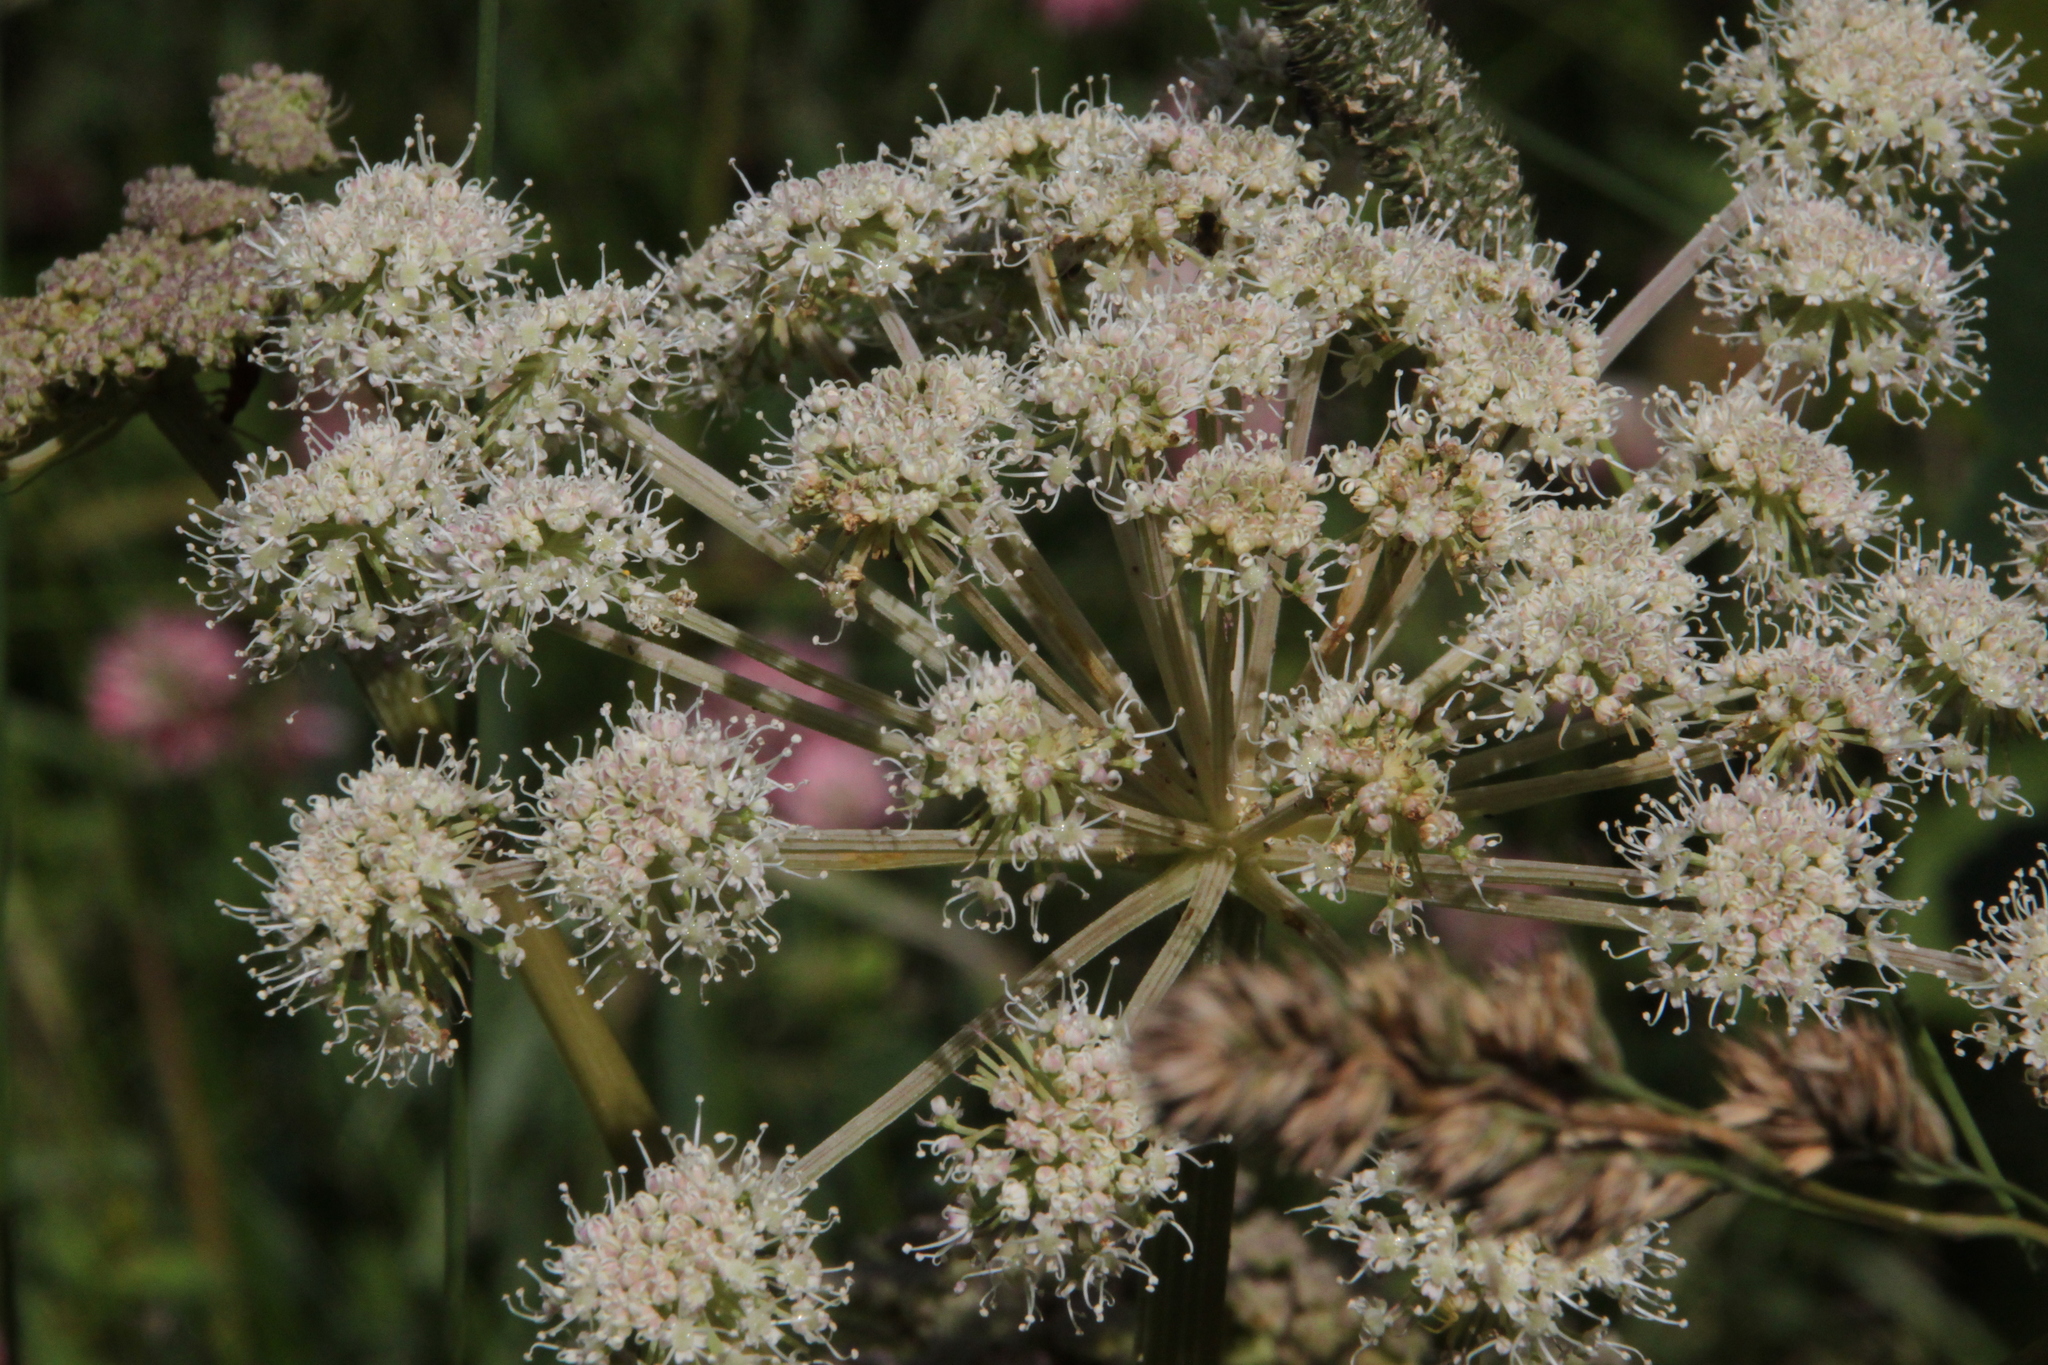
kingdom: Plantae
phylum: Tracheophyta
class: Magnoliopsida
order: Apiales
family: Apiaceae
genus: Angelica
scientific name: Angelica sylvestris
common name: Wild angelica
